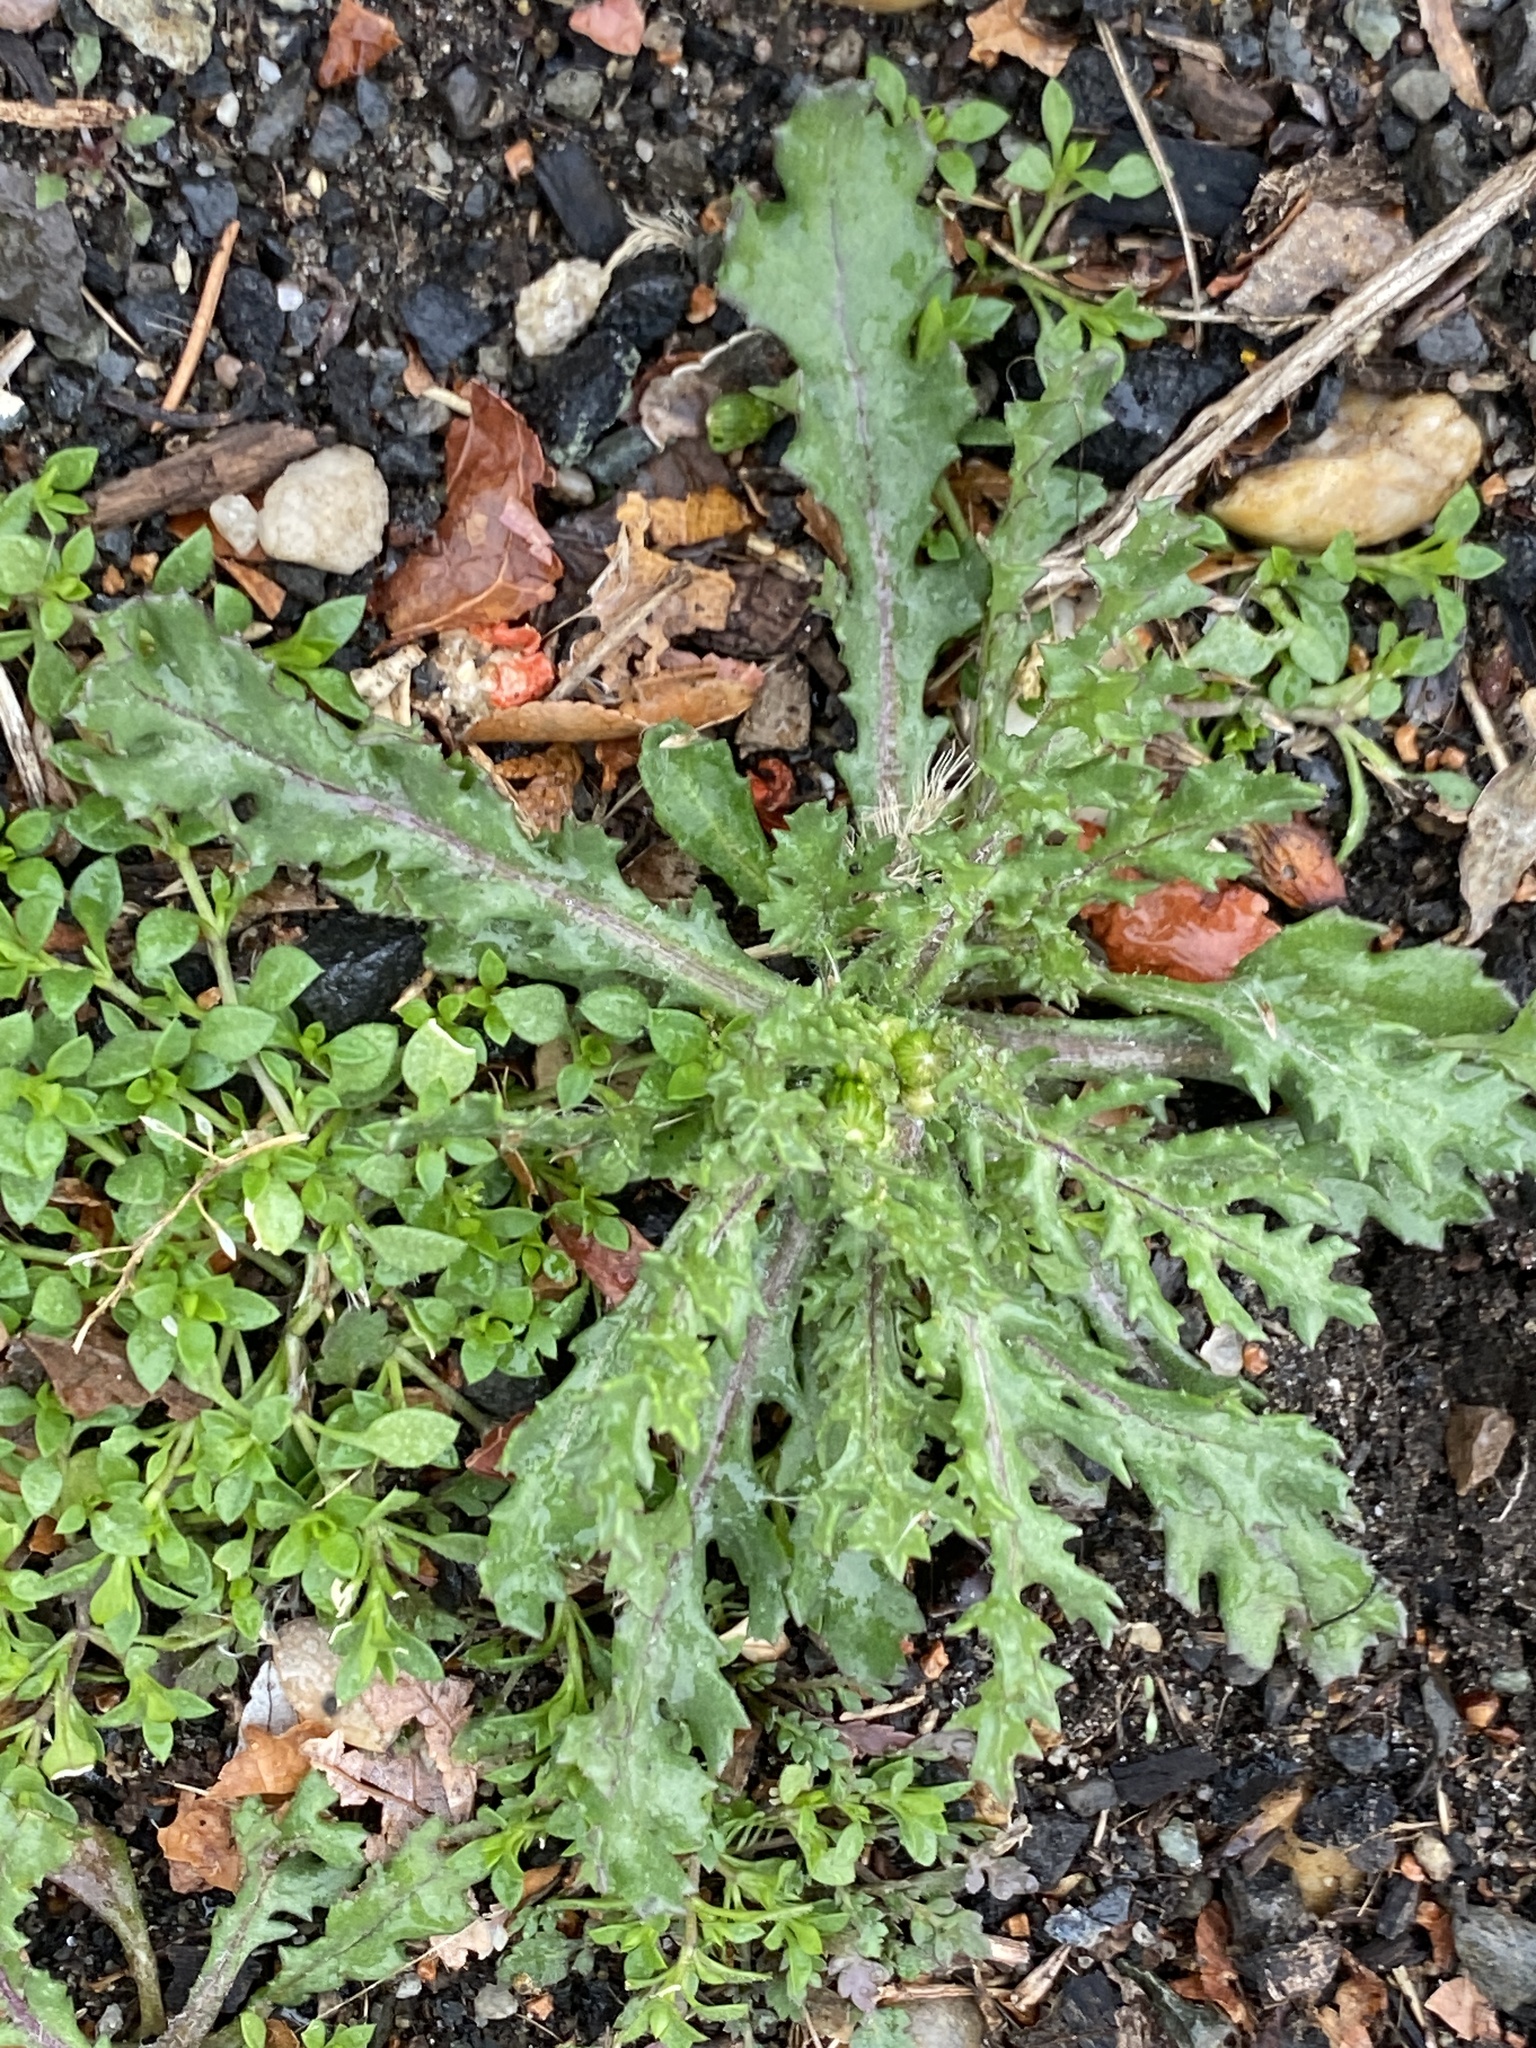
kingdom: Plantae
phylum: Tracheophyta
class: Magnoliopsida
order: Asterales
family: Asteraceae
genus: Senecio
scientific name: Senecio vulgaris
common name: Old-man-in-the-spring
